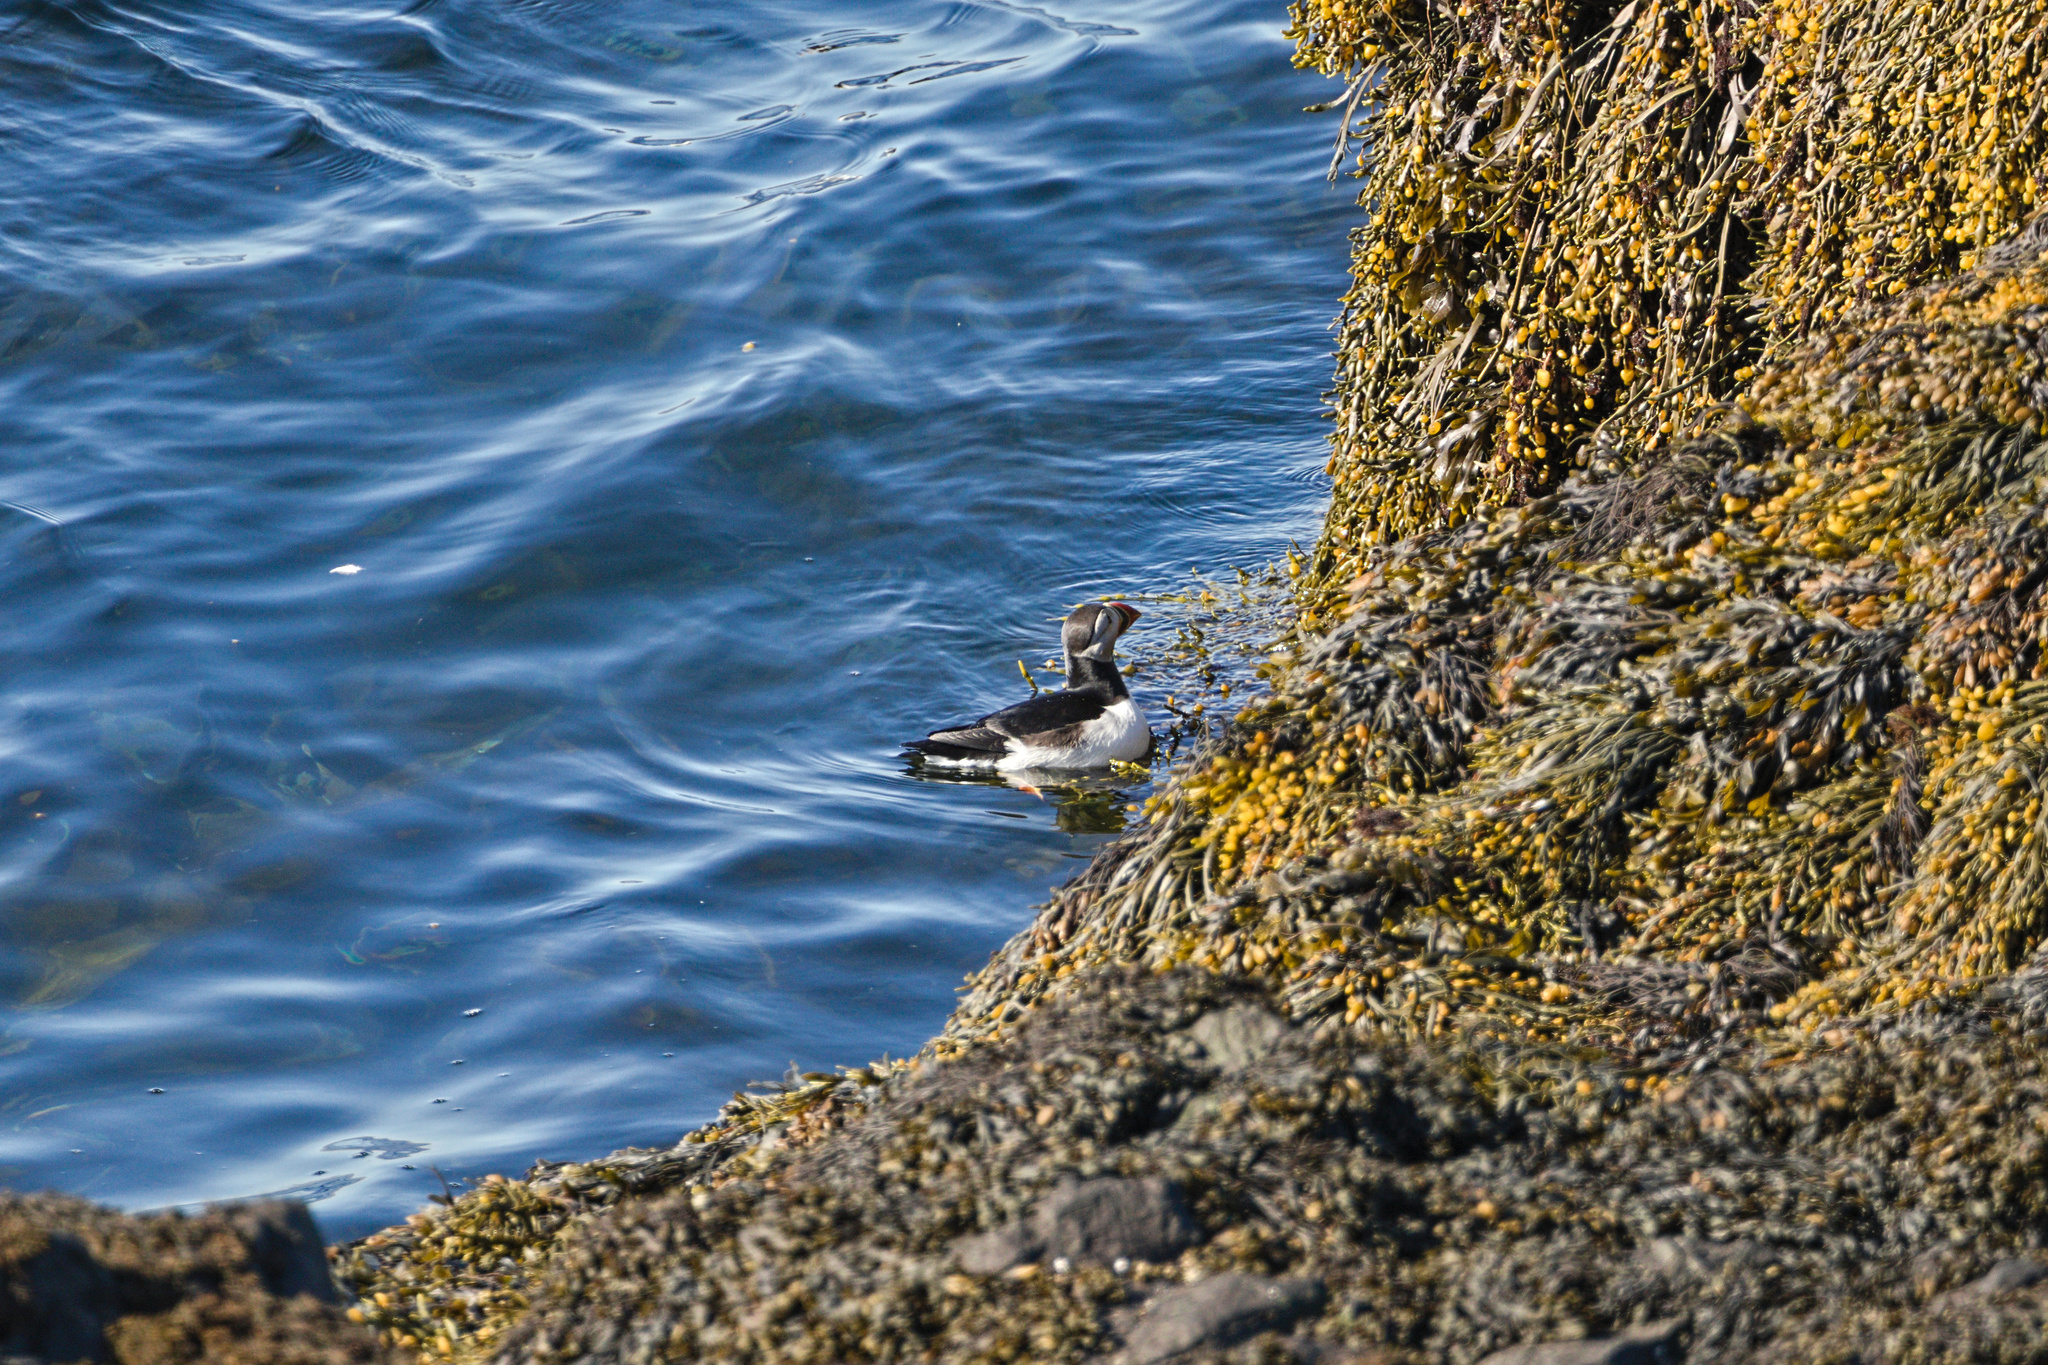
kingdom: Animalia
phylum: Chordata
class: Aves
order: Charadriiformes
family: Alcidae
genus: Fratercula
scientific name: Fratercula arctica
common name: Atlantic puffin
